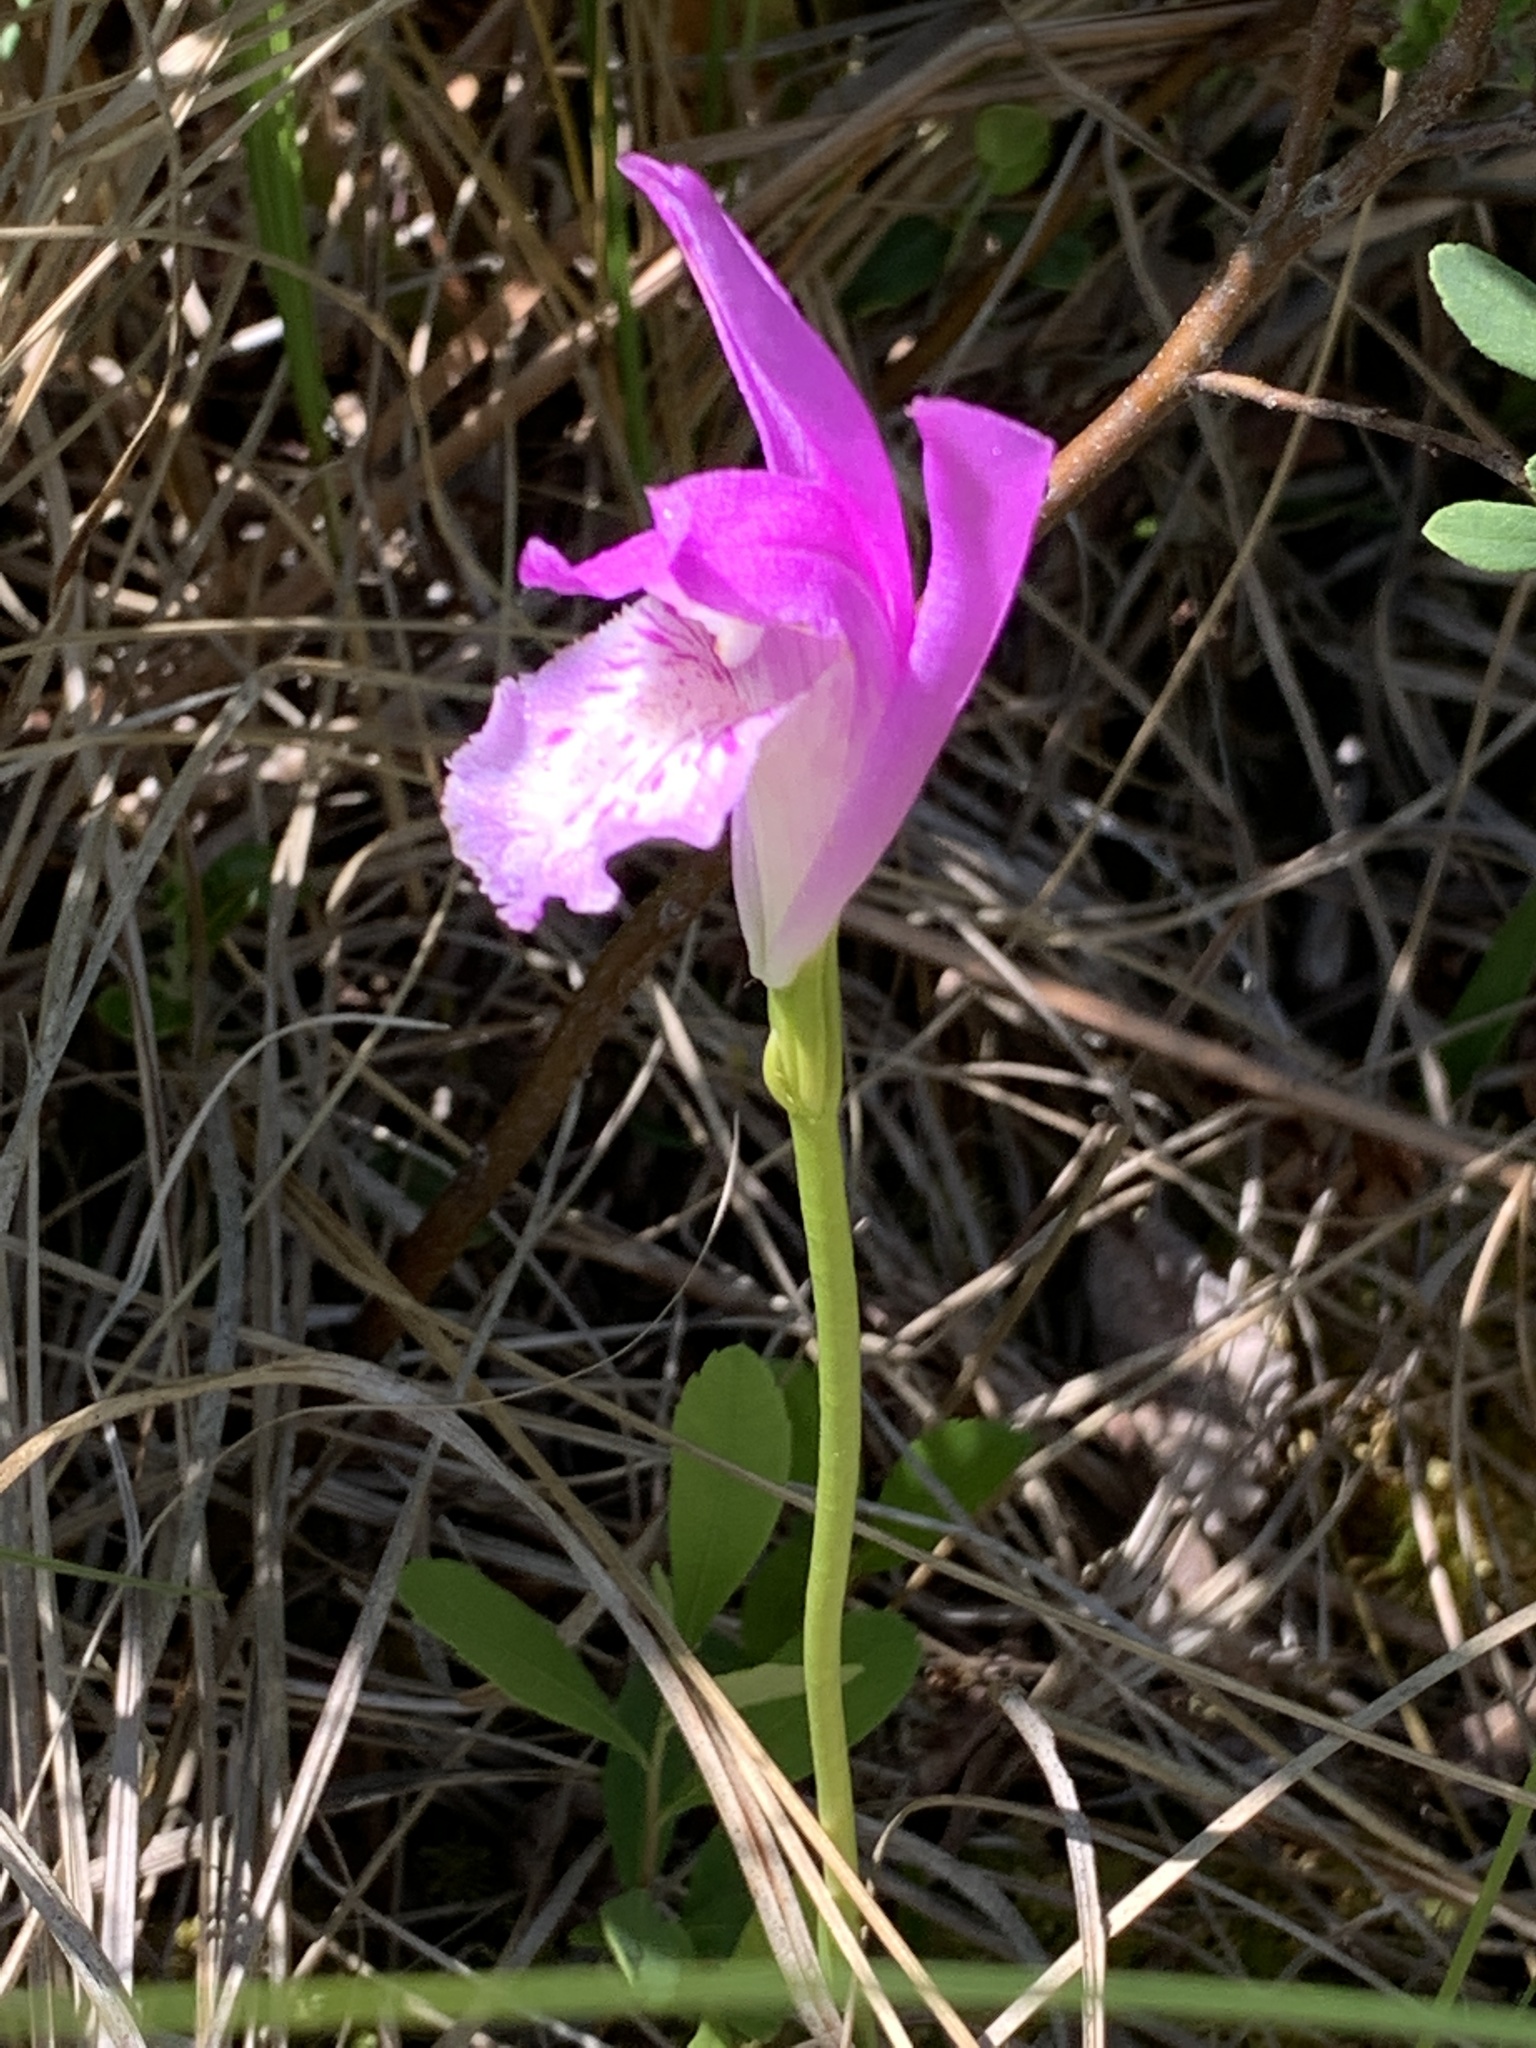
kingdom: Plantae
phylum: Tracheophyta
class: Liliopsida
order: Asparagales
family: Orchidaceae
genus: Arethusa
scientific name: Arethusa bulbosa
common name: Arethusa
